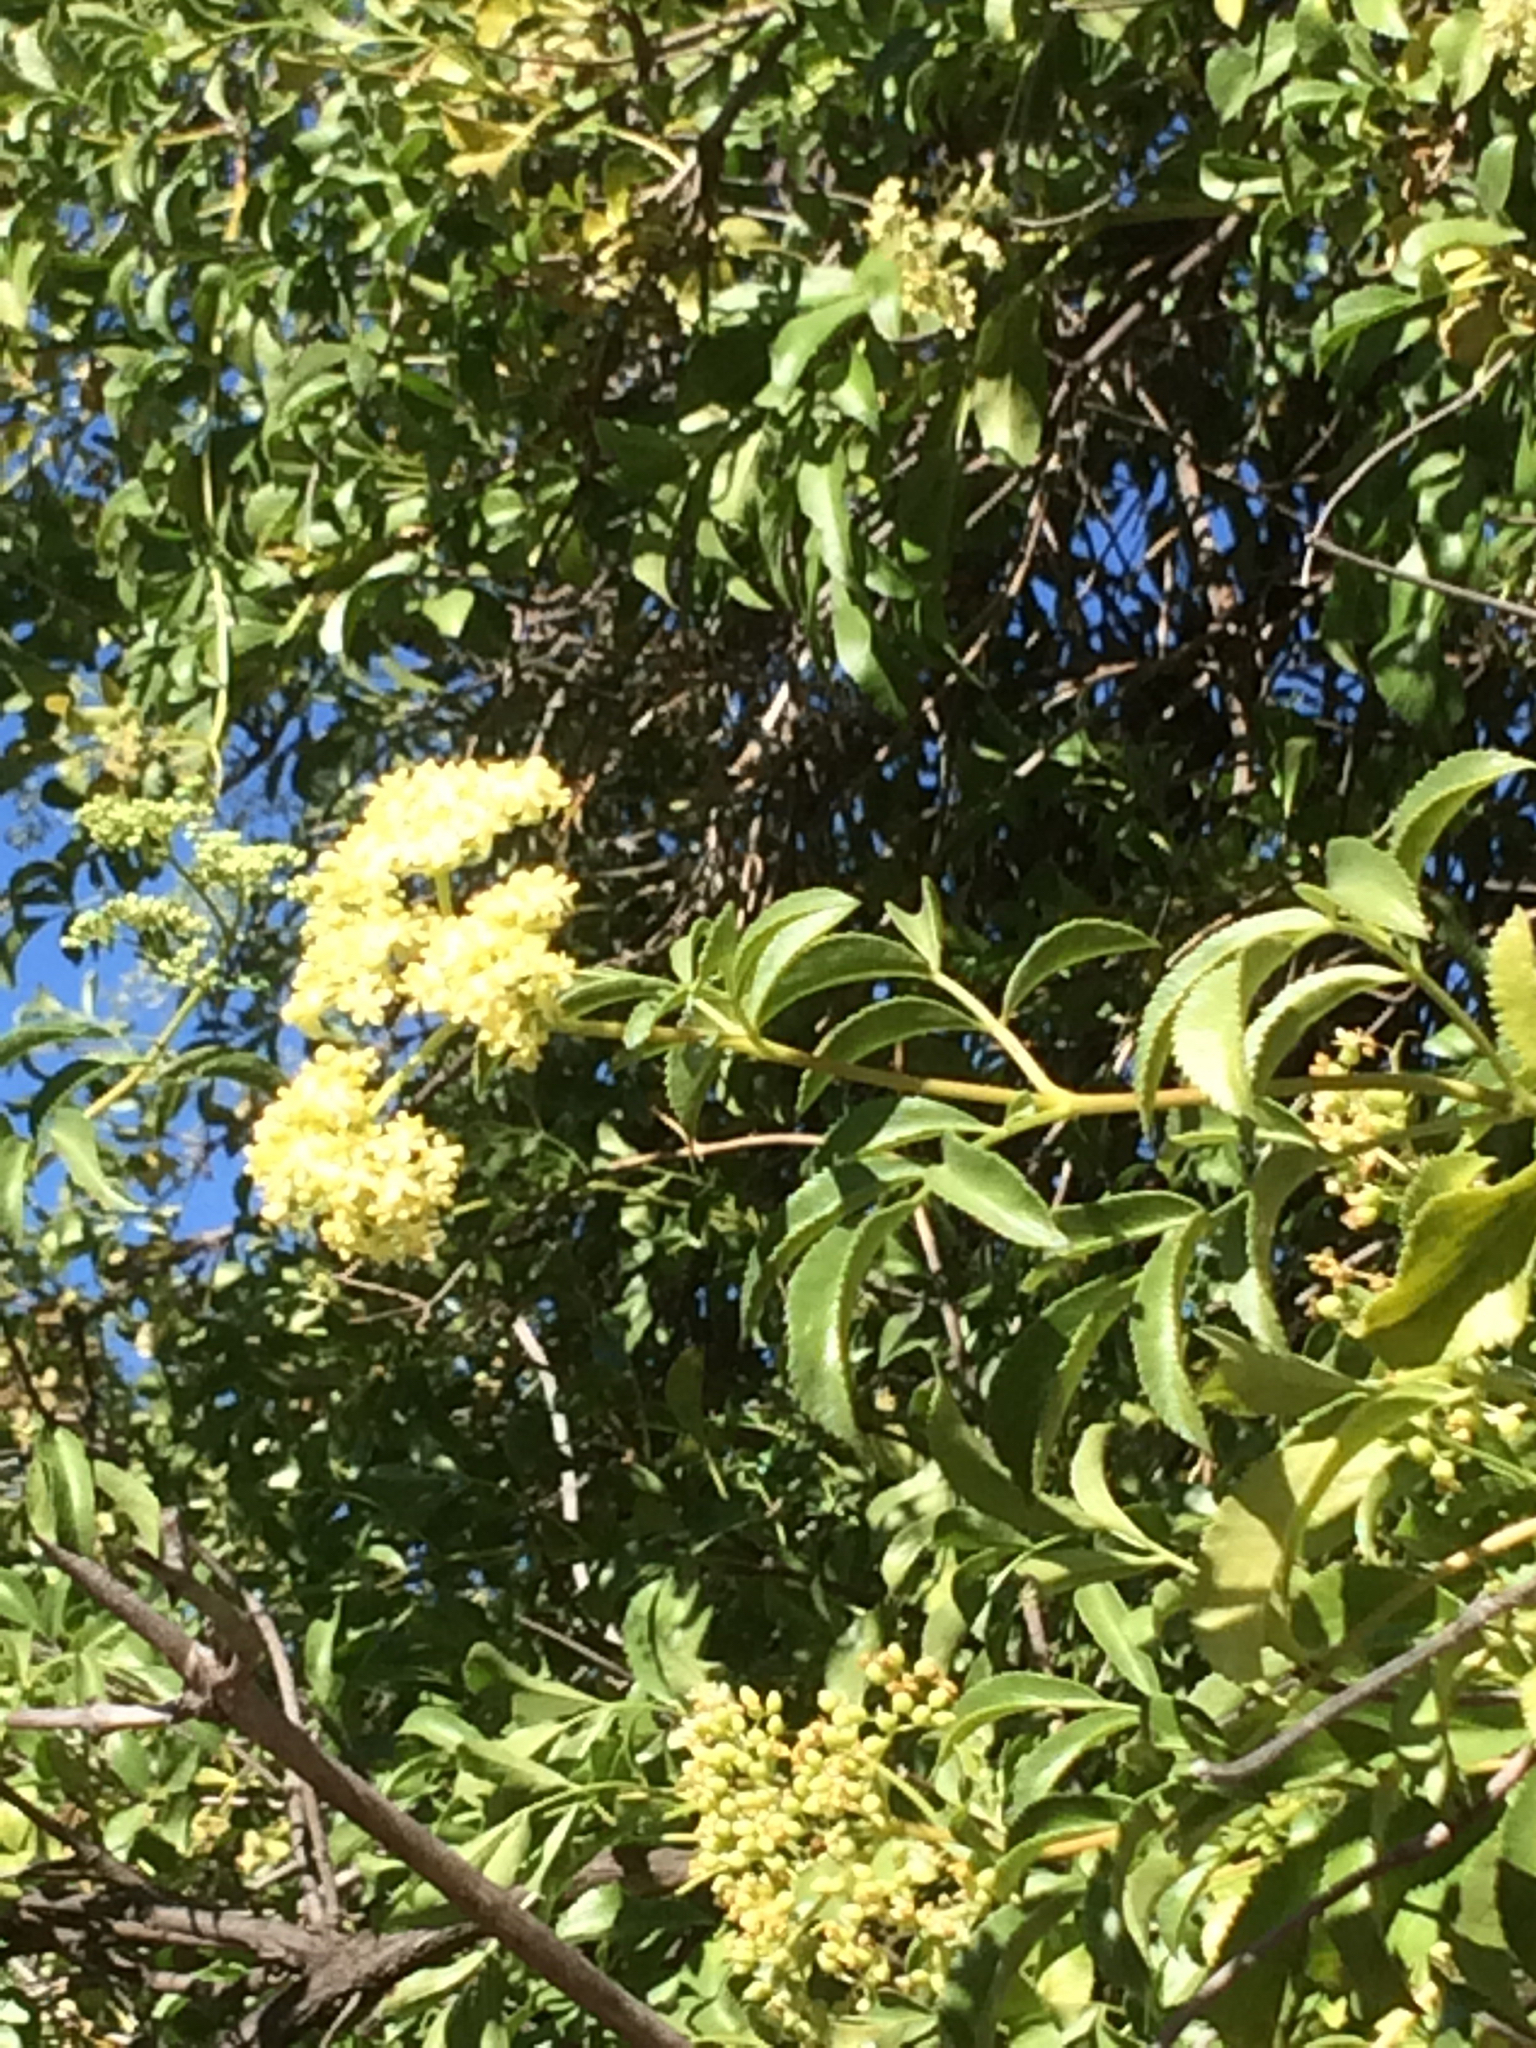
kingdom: Plantae
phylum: Tracheophyta
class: Magnoliopsida
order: Dipsacales
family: Viburnaceae
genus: Sambucus
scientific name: Sambucus cerulea
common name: Blue elder
